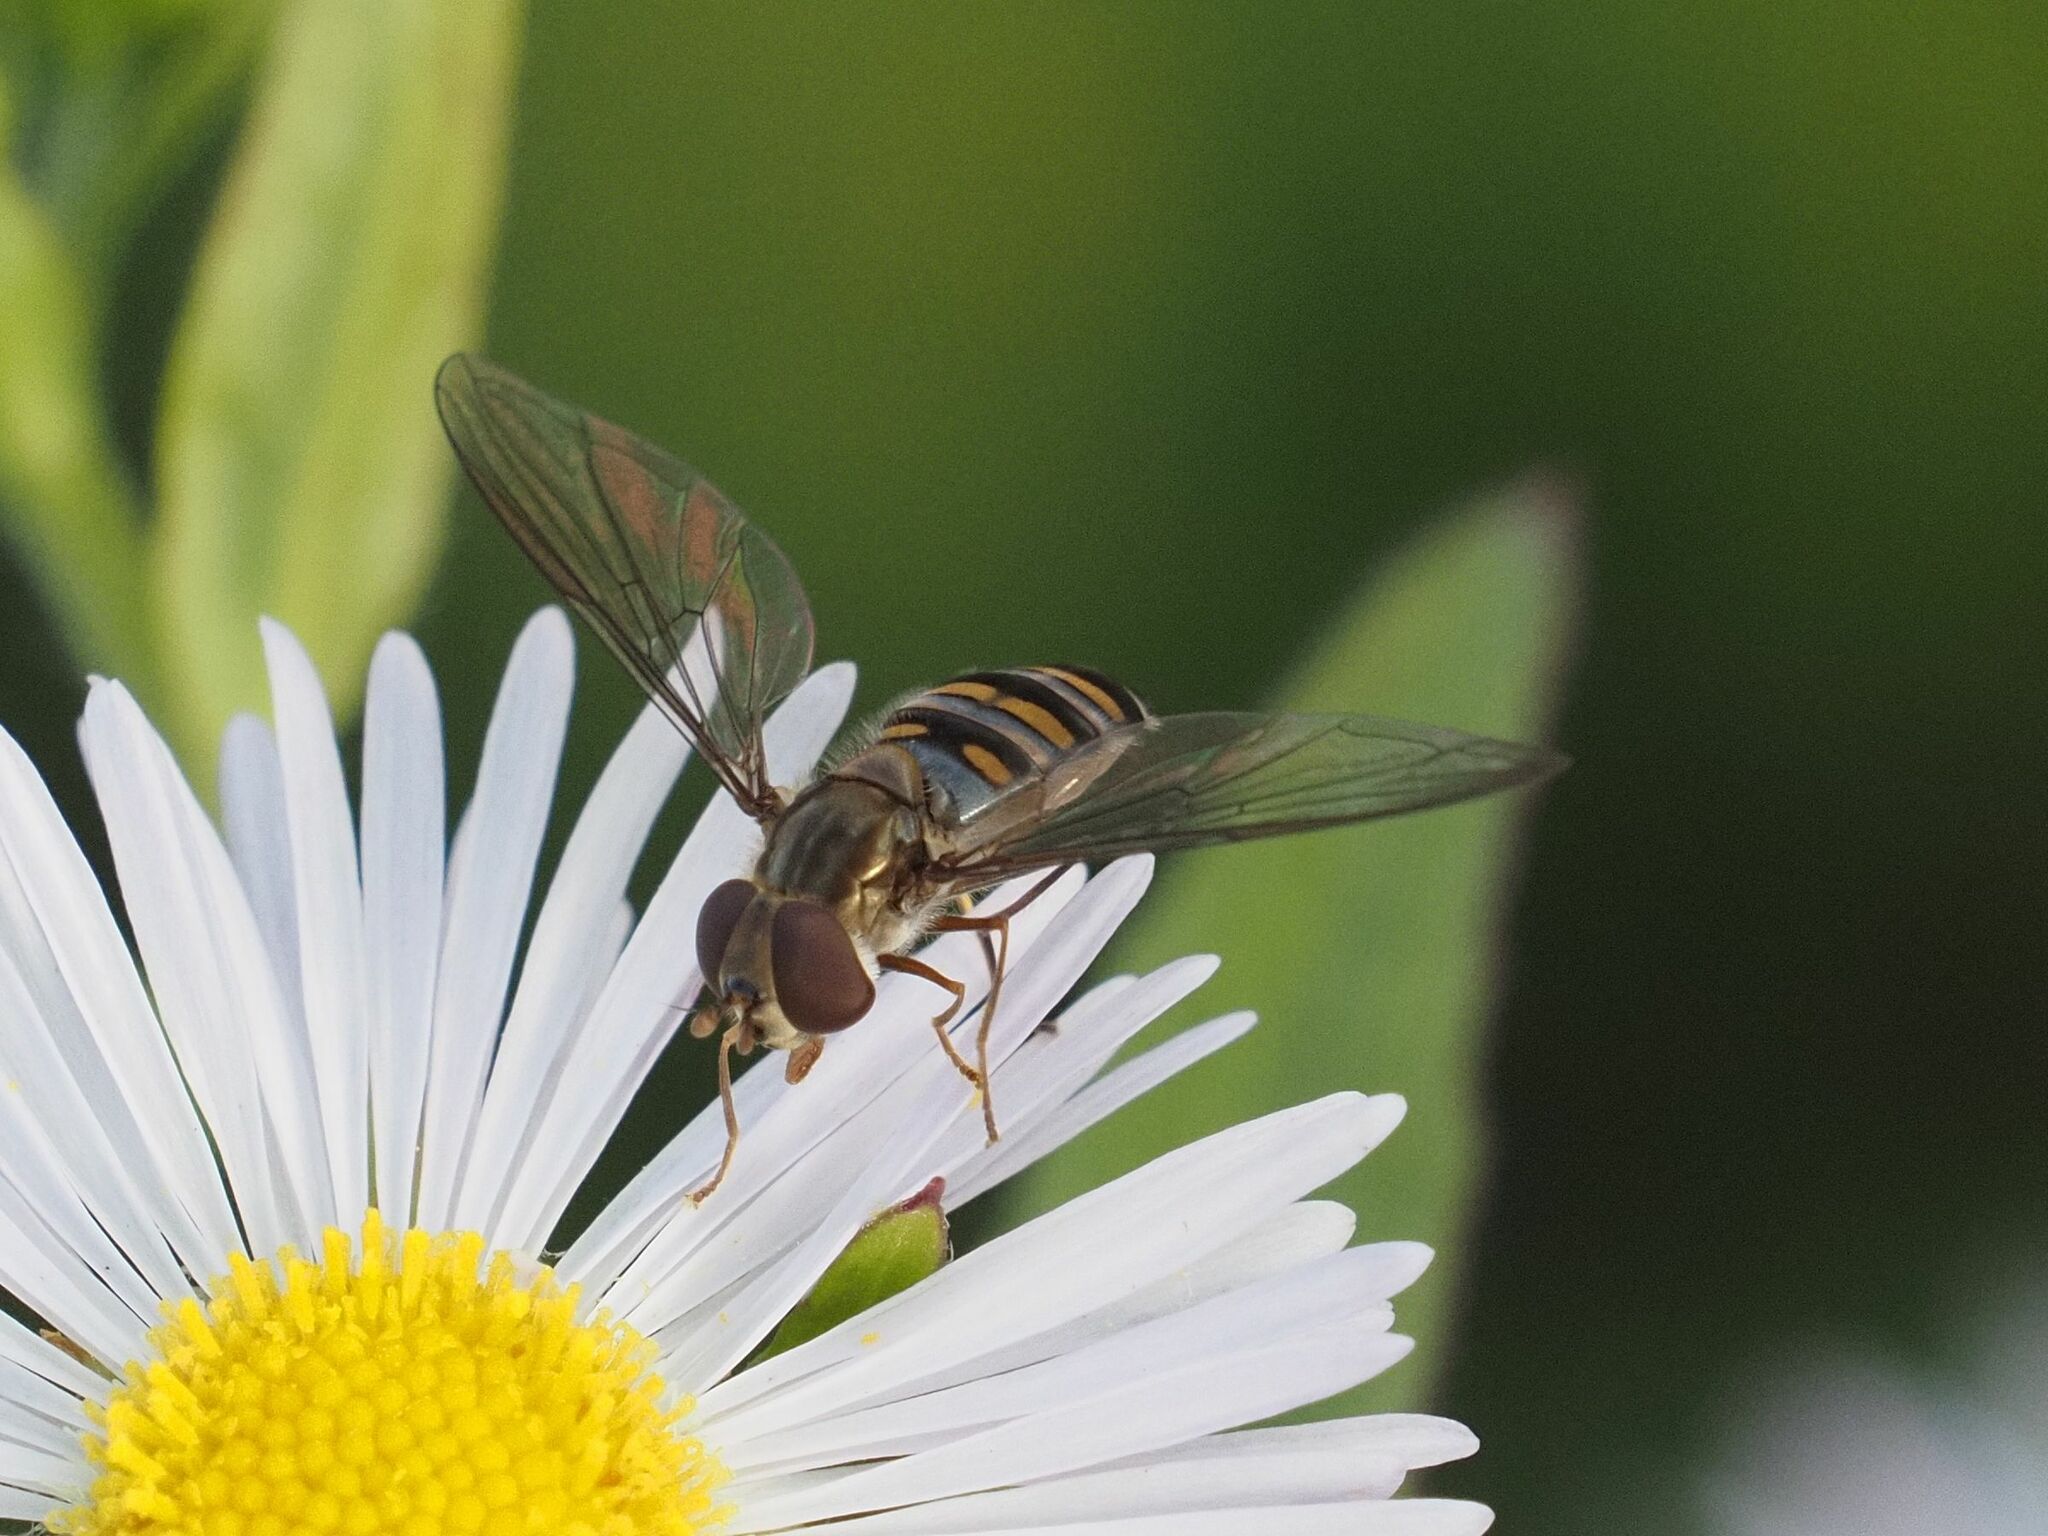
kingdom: Animalia
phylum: Arthropoda
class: Insecta
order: Diptera
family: Syrphidae
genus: Episyrphus
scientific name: Episyrphus balteatus
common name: Marmalade hoverfly
